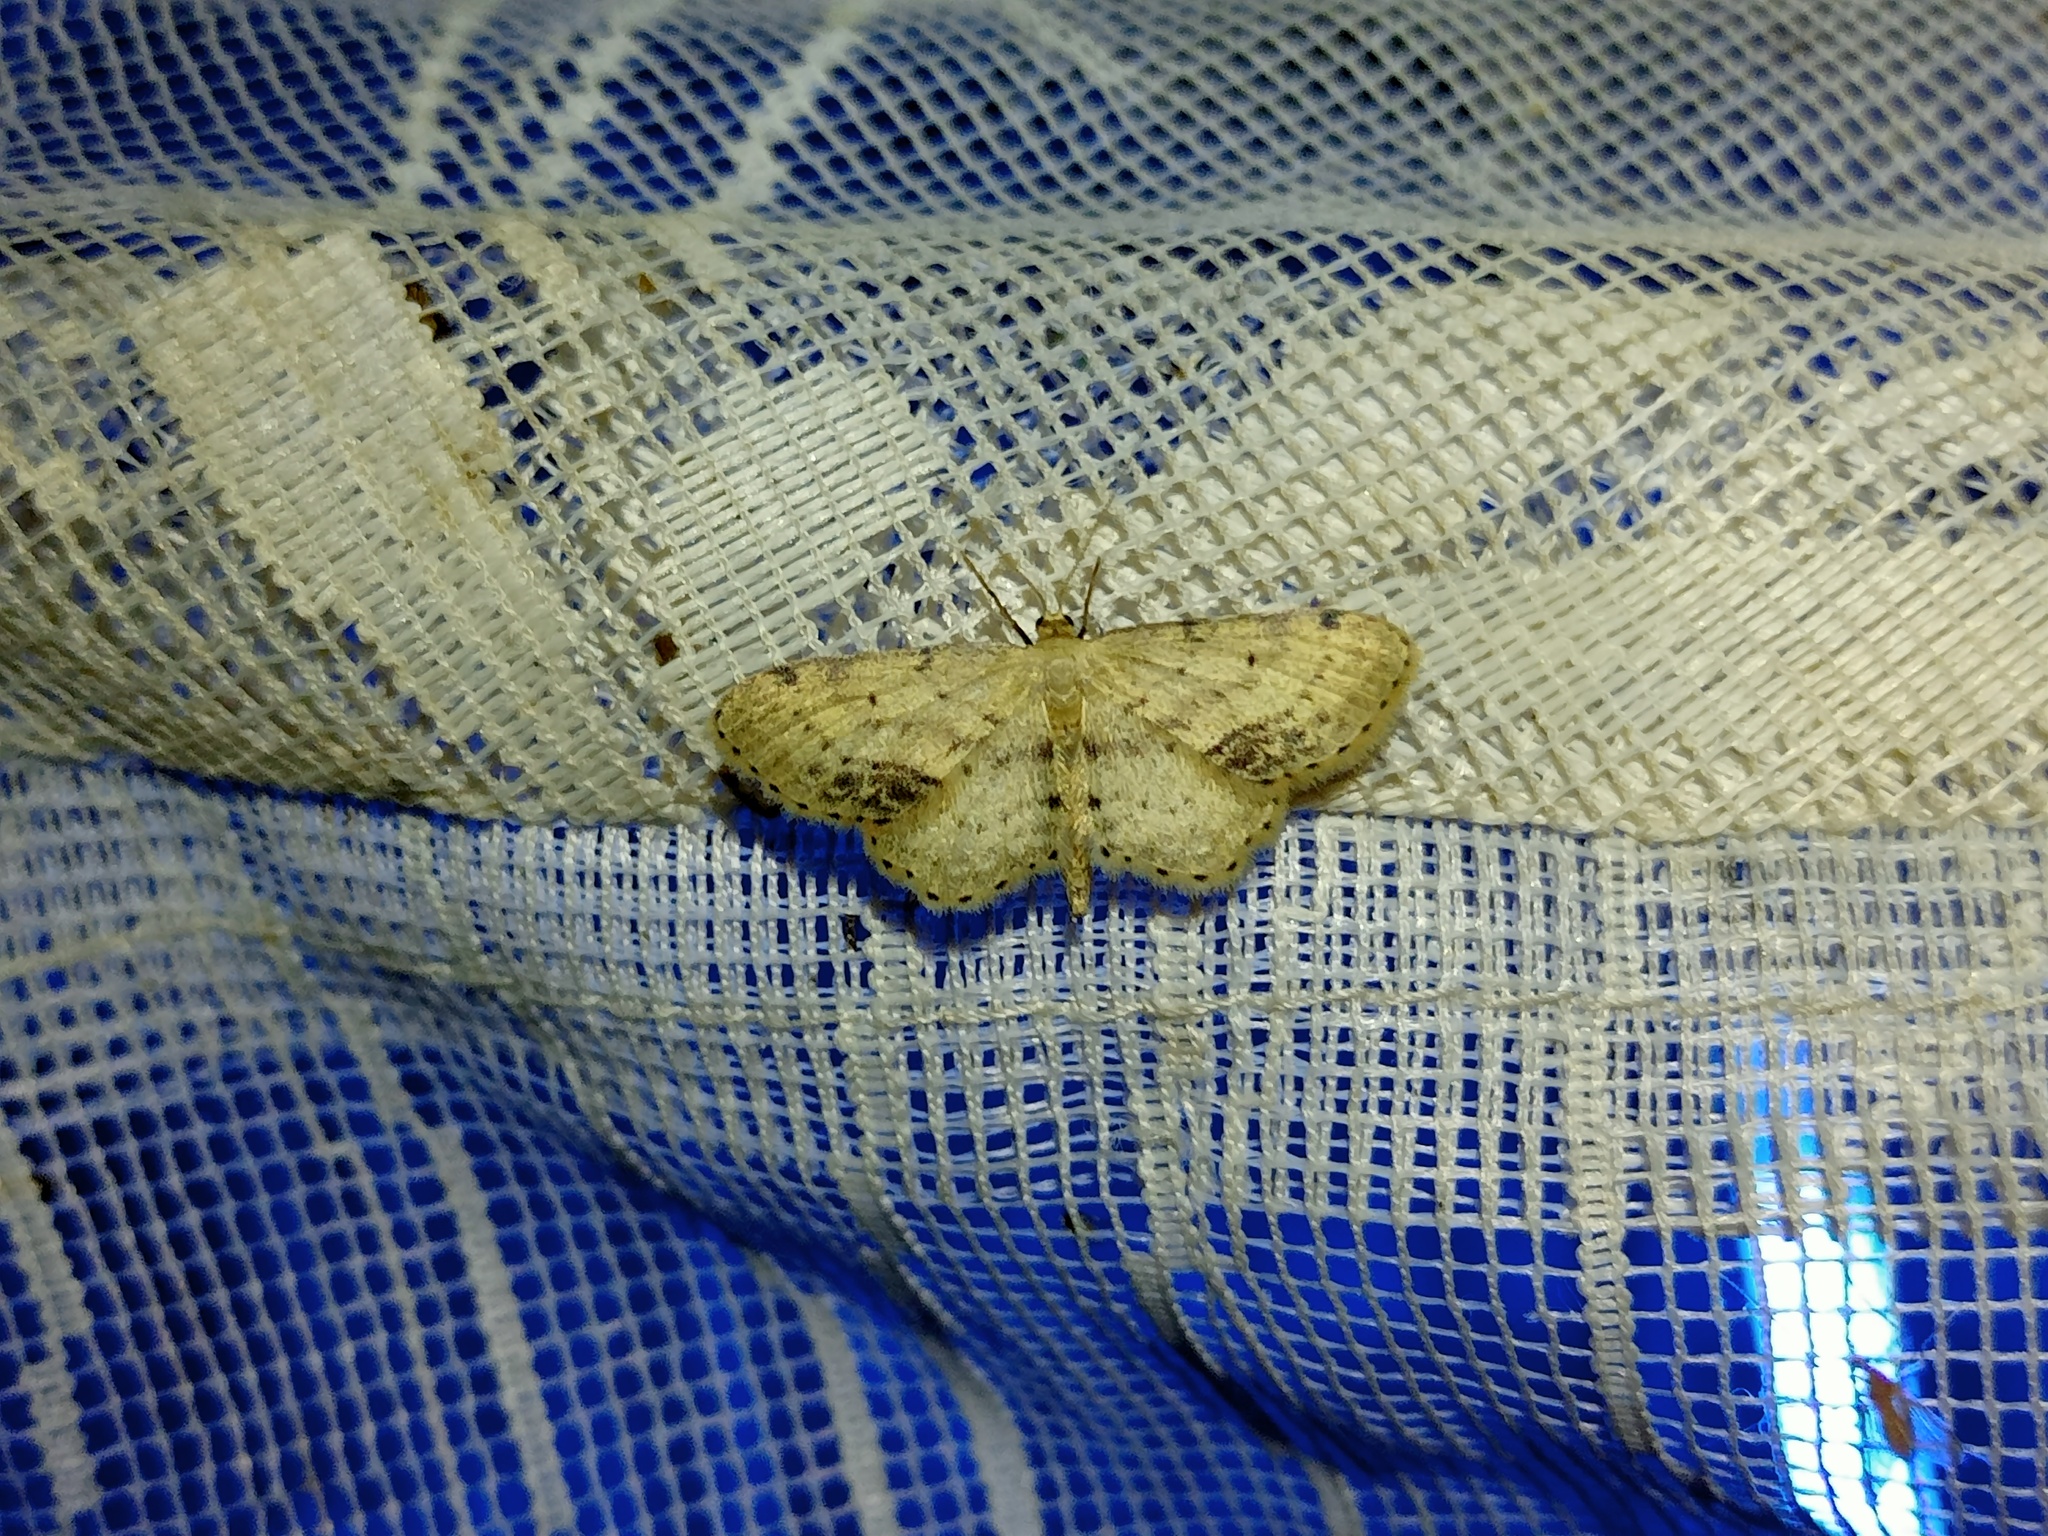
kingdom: Animalia
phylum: Arthropoda
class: Insecta
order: Lepidoptera
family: Geometridae
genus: Idaea
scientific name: Idaea dimidiata
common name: Single-dotted wave
